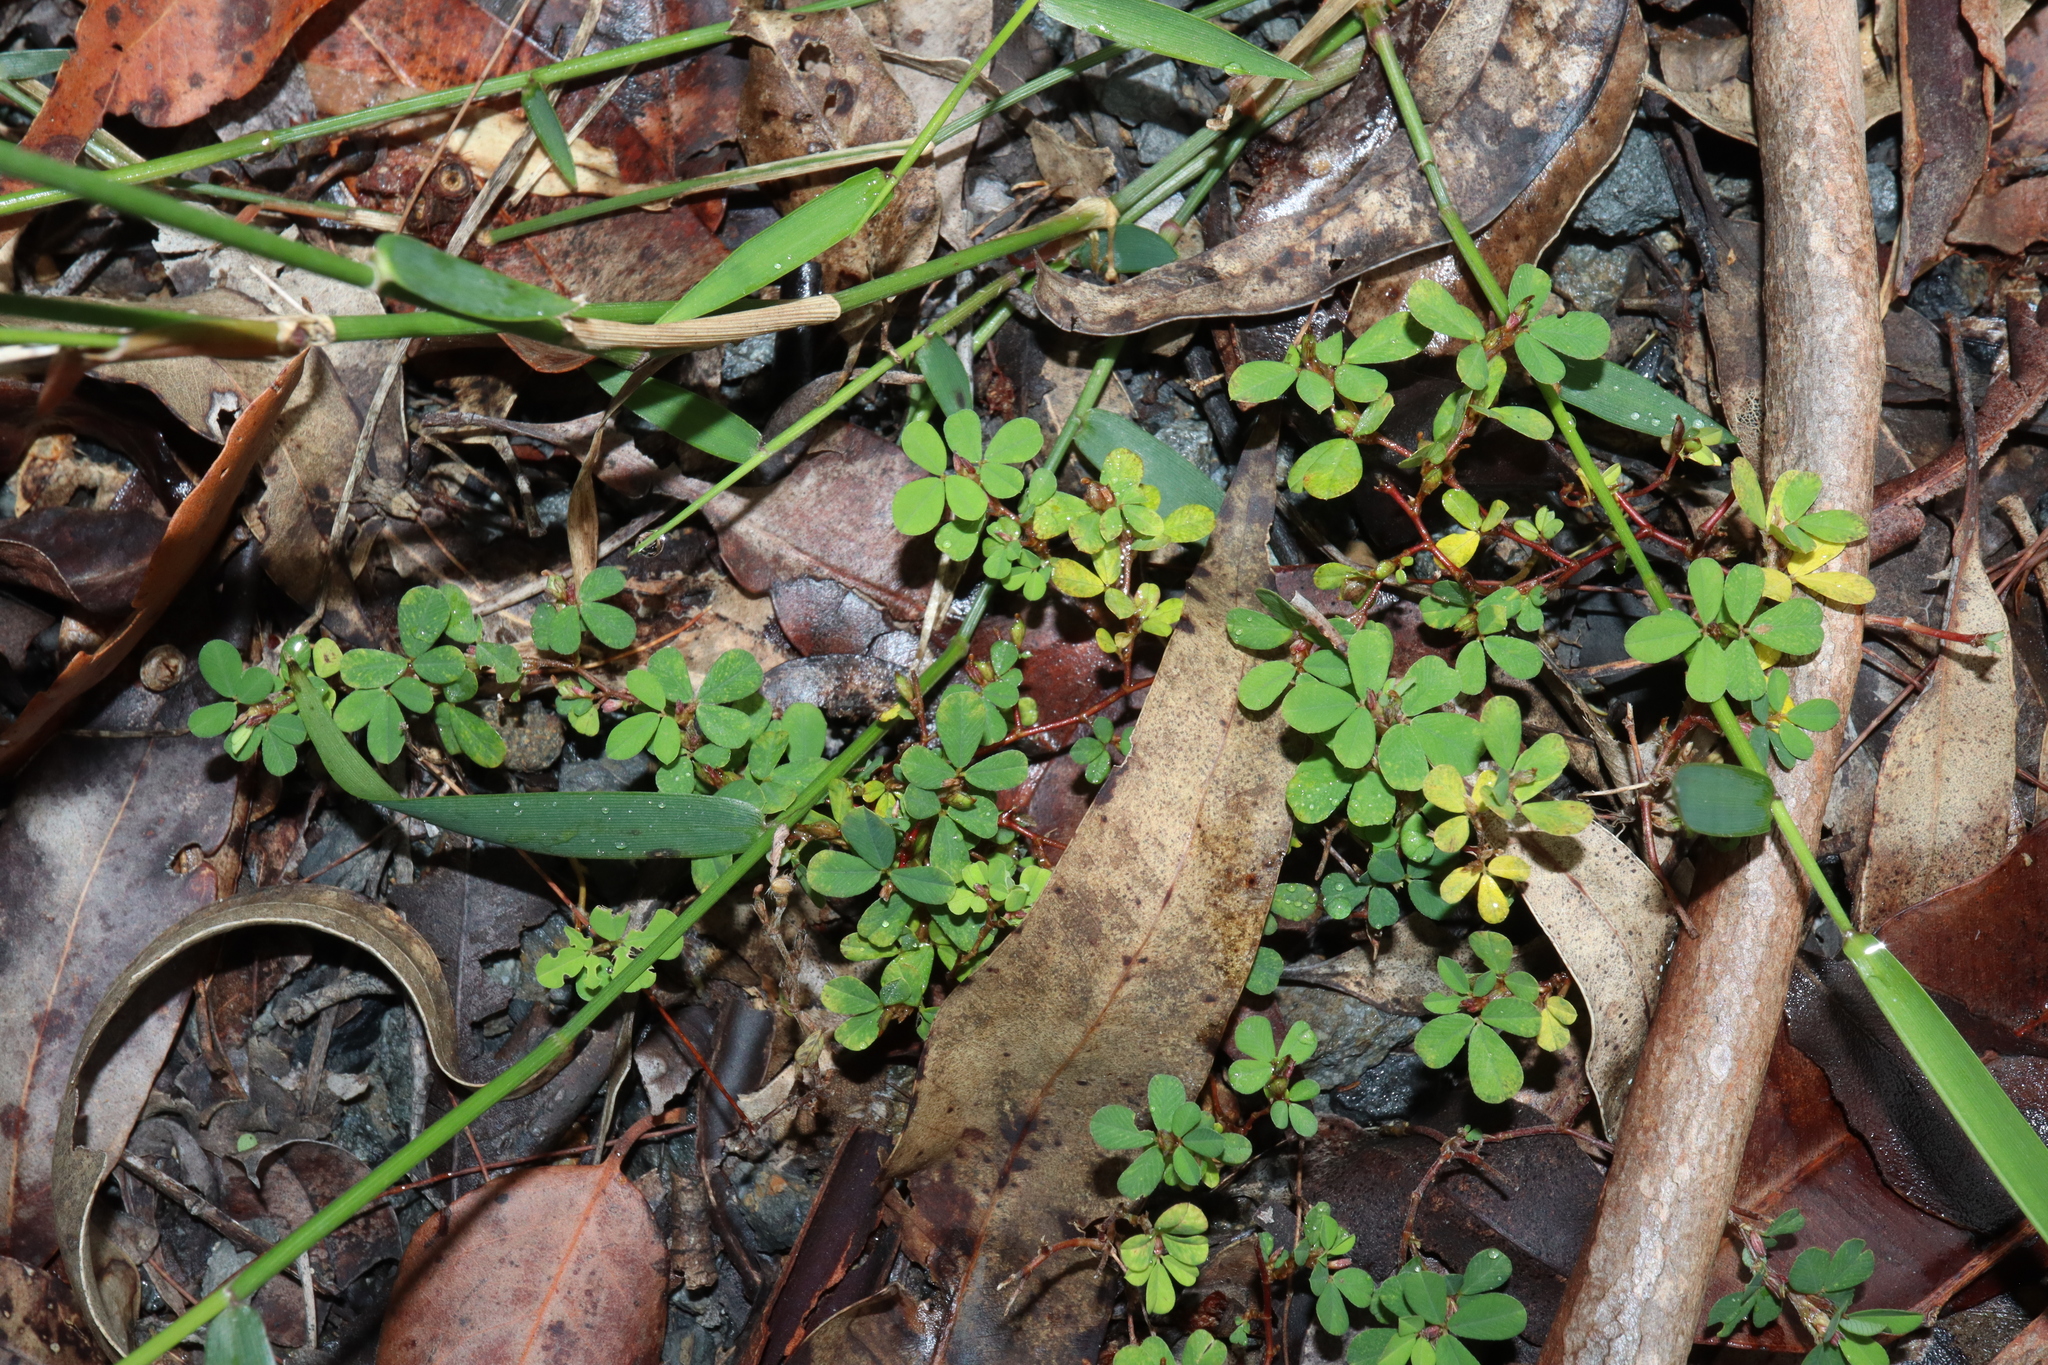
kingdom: Plantae
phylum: Tracheophyta
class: Magnoliopsida
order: Fabales
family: Fabaceae
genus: Kummerowia
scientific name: Kummerowia striata
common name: Japanese clover
